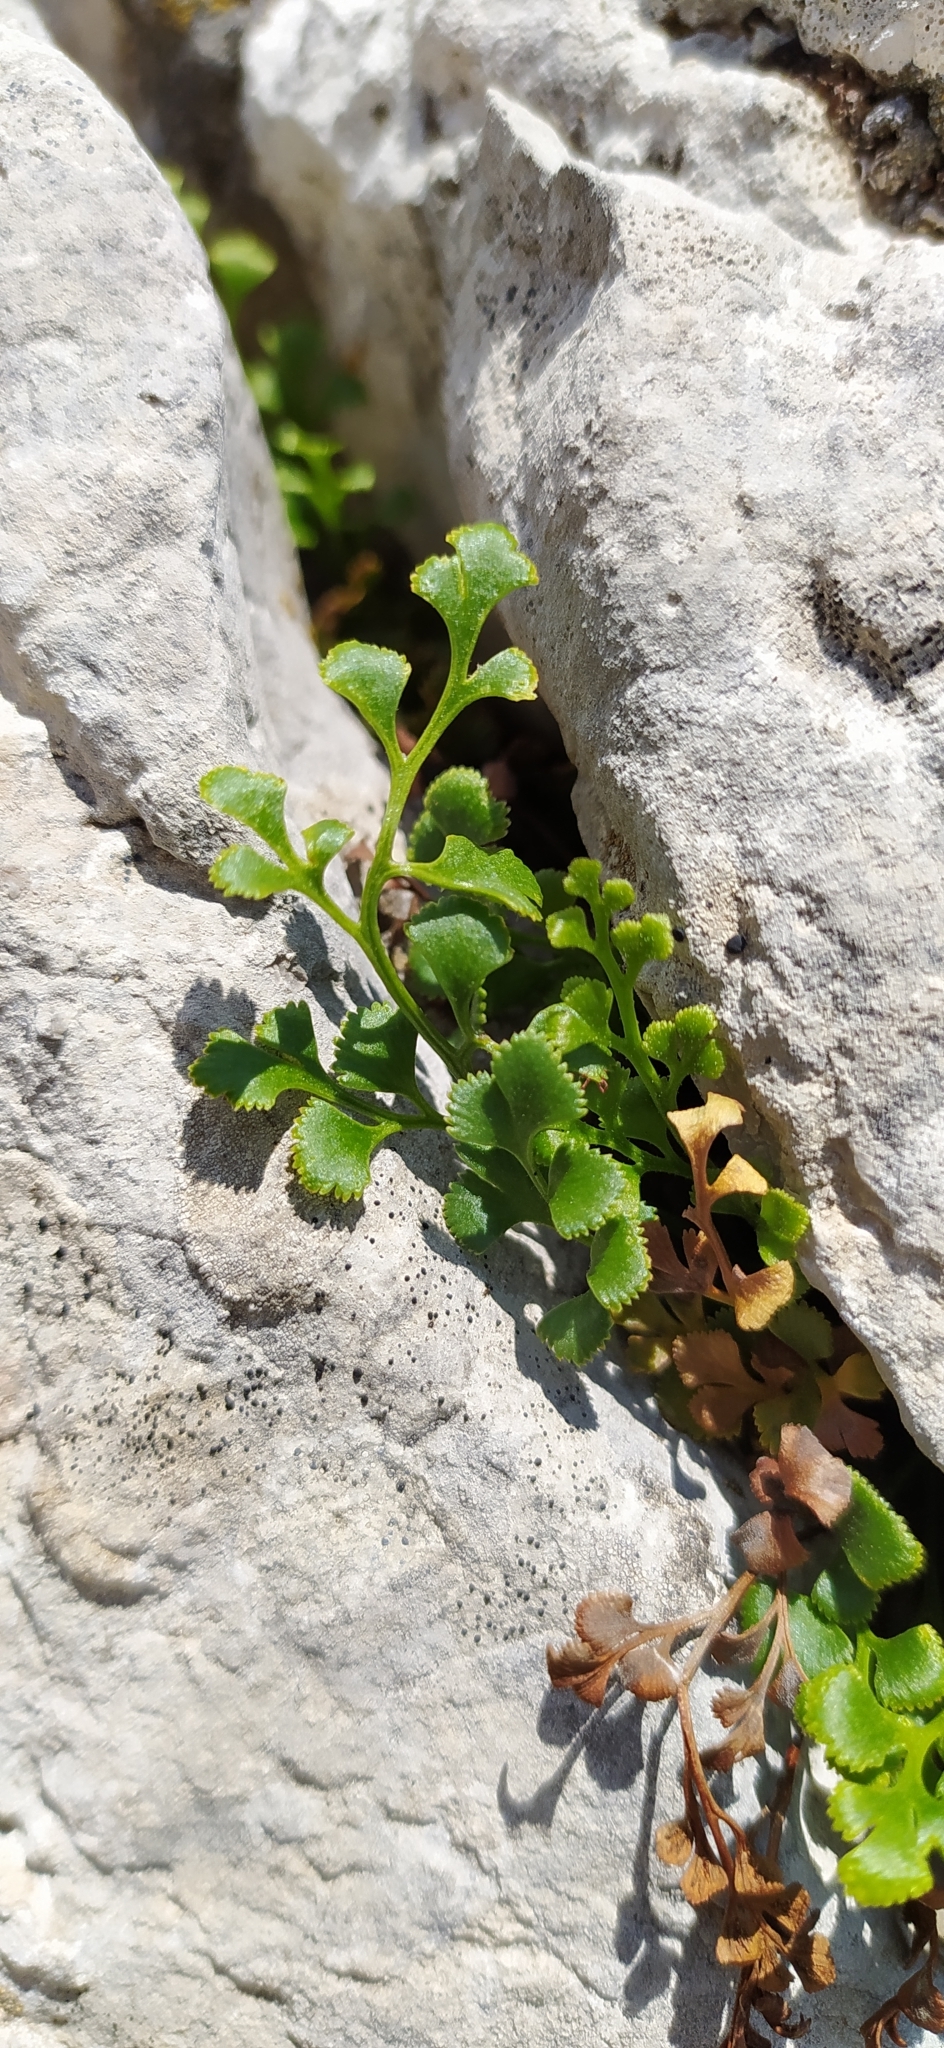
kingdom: Plantae
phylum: Tracheophyta
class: Polypodiopsida
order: Polypodiales
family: Aspleniaceae
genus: Asplenium
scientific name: Asplenium ruta-muraria
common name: Wall-rue
